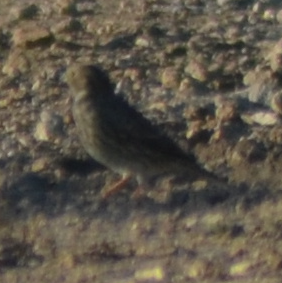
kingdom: Animalia
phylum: Chordata
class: Aves
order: Passeriformes
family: Emberizidae
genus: Emberiza
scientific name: Emberiza calandra
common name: Corn bunting
